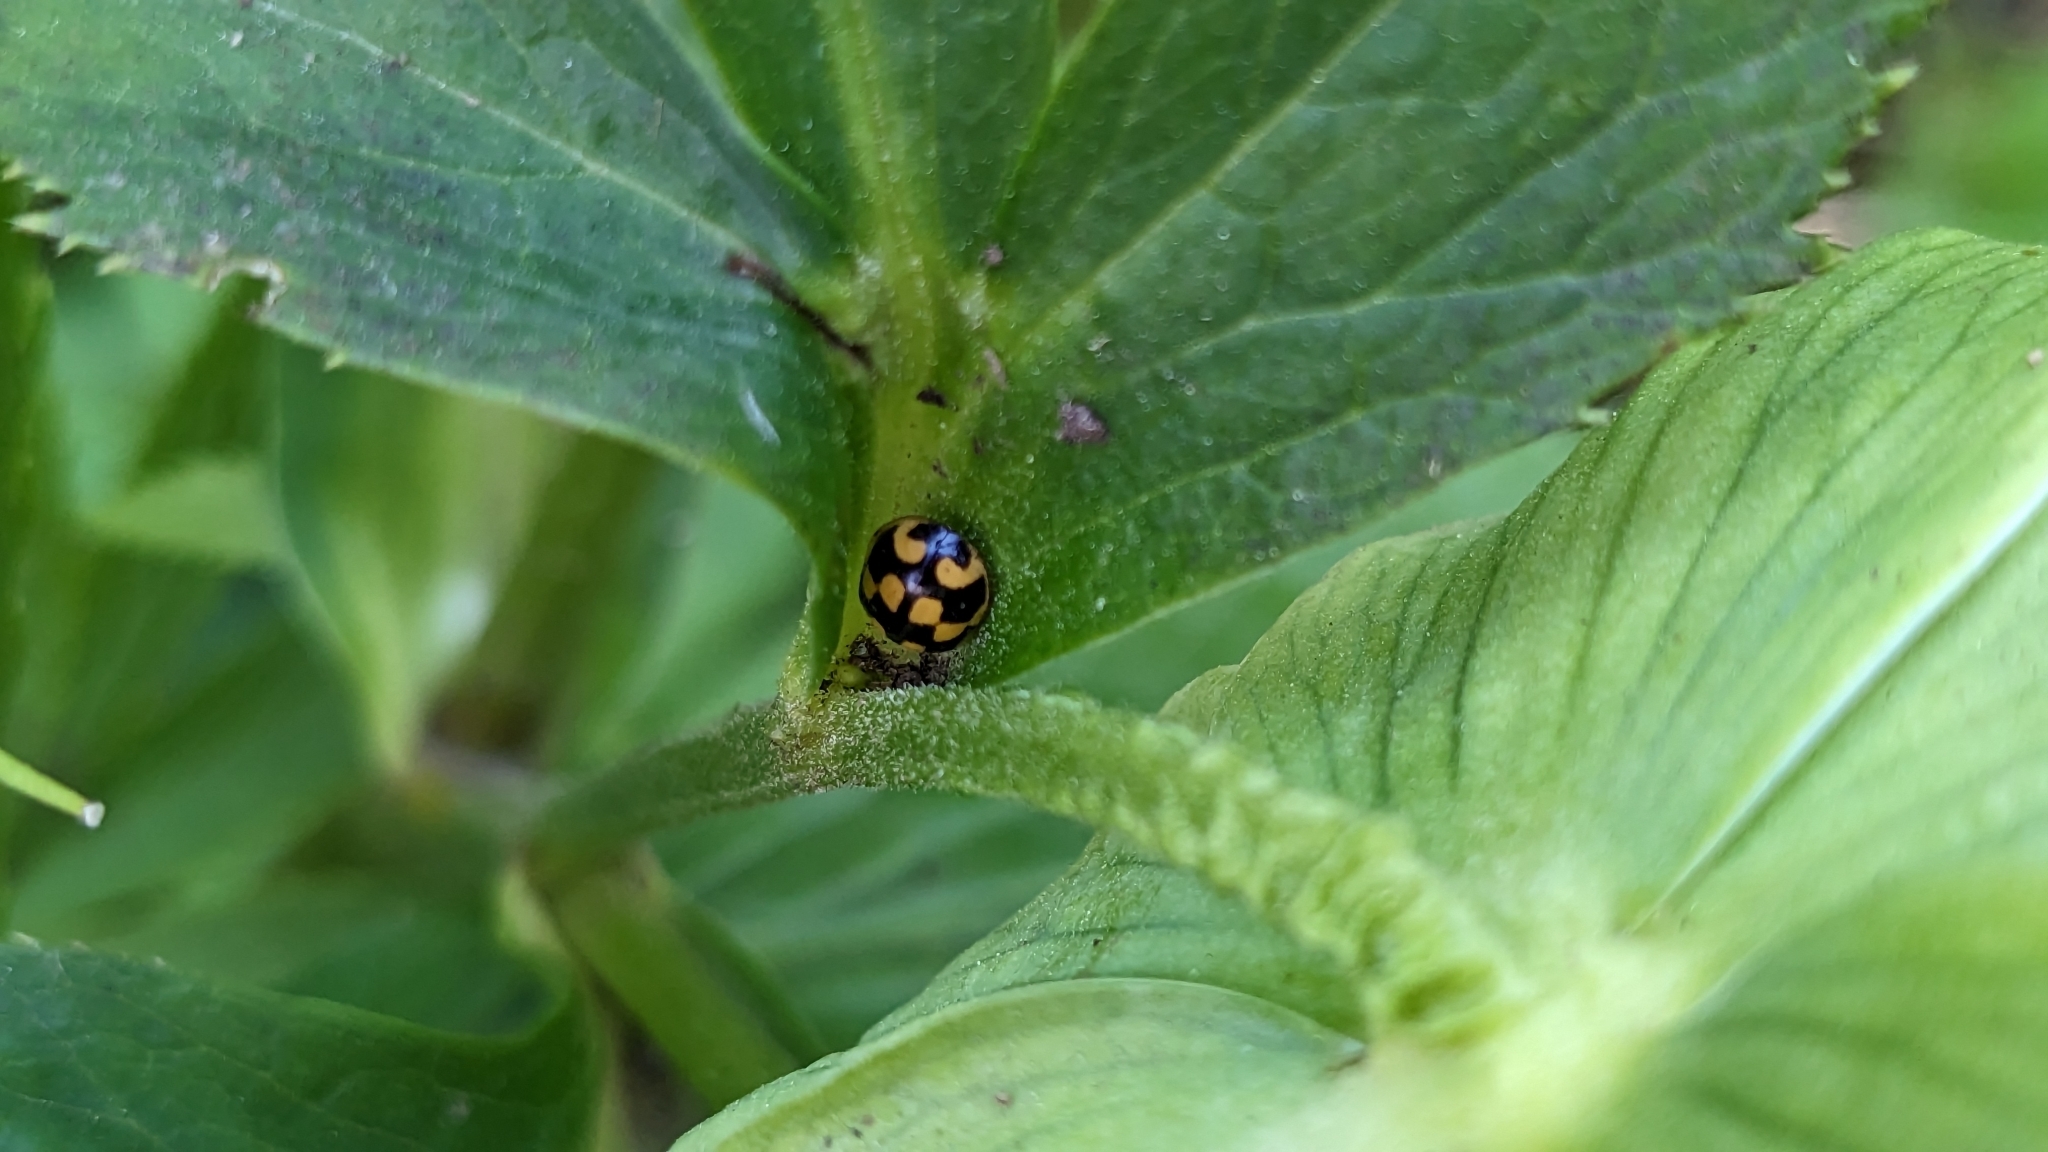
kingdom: Animalia
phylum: Arthropoda
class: Insecta
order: Coleoptera
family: Coccinellidae
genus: Propylaea
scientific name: Propylaea quatuordecimpunctata
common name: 14-spotted ladybird beetle
